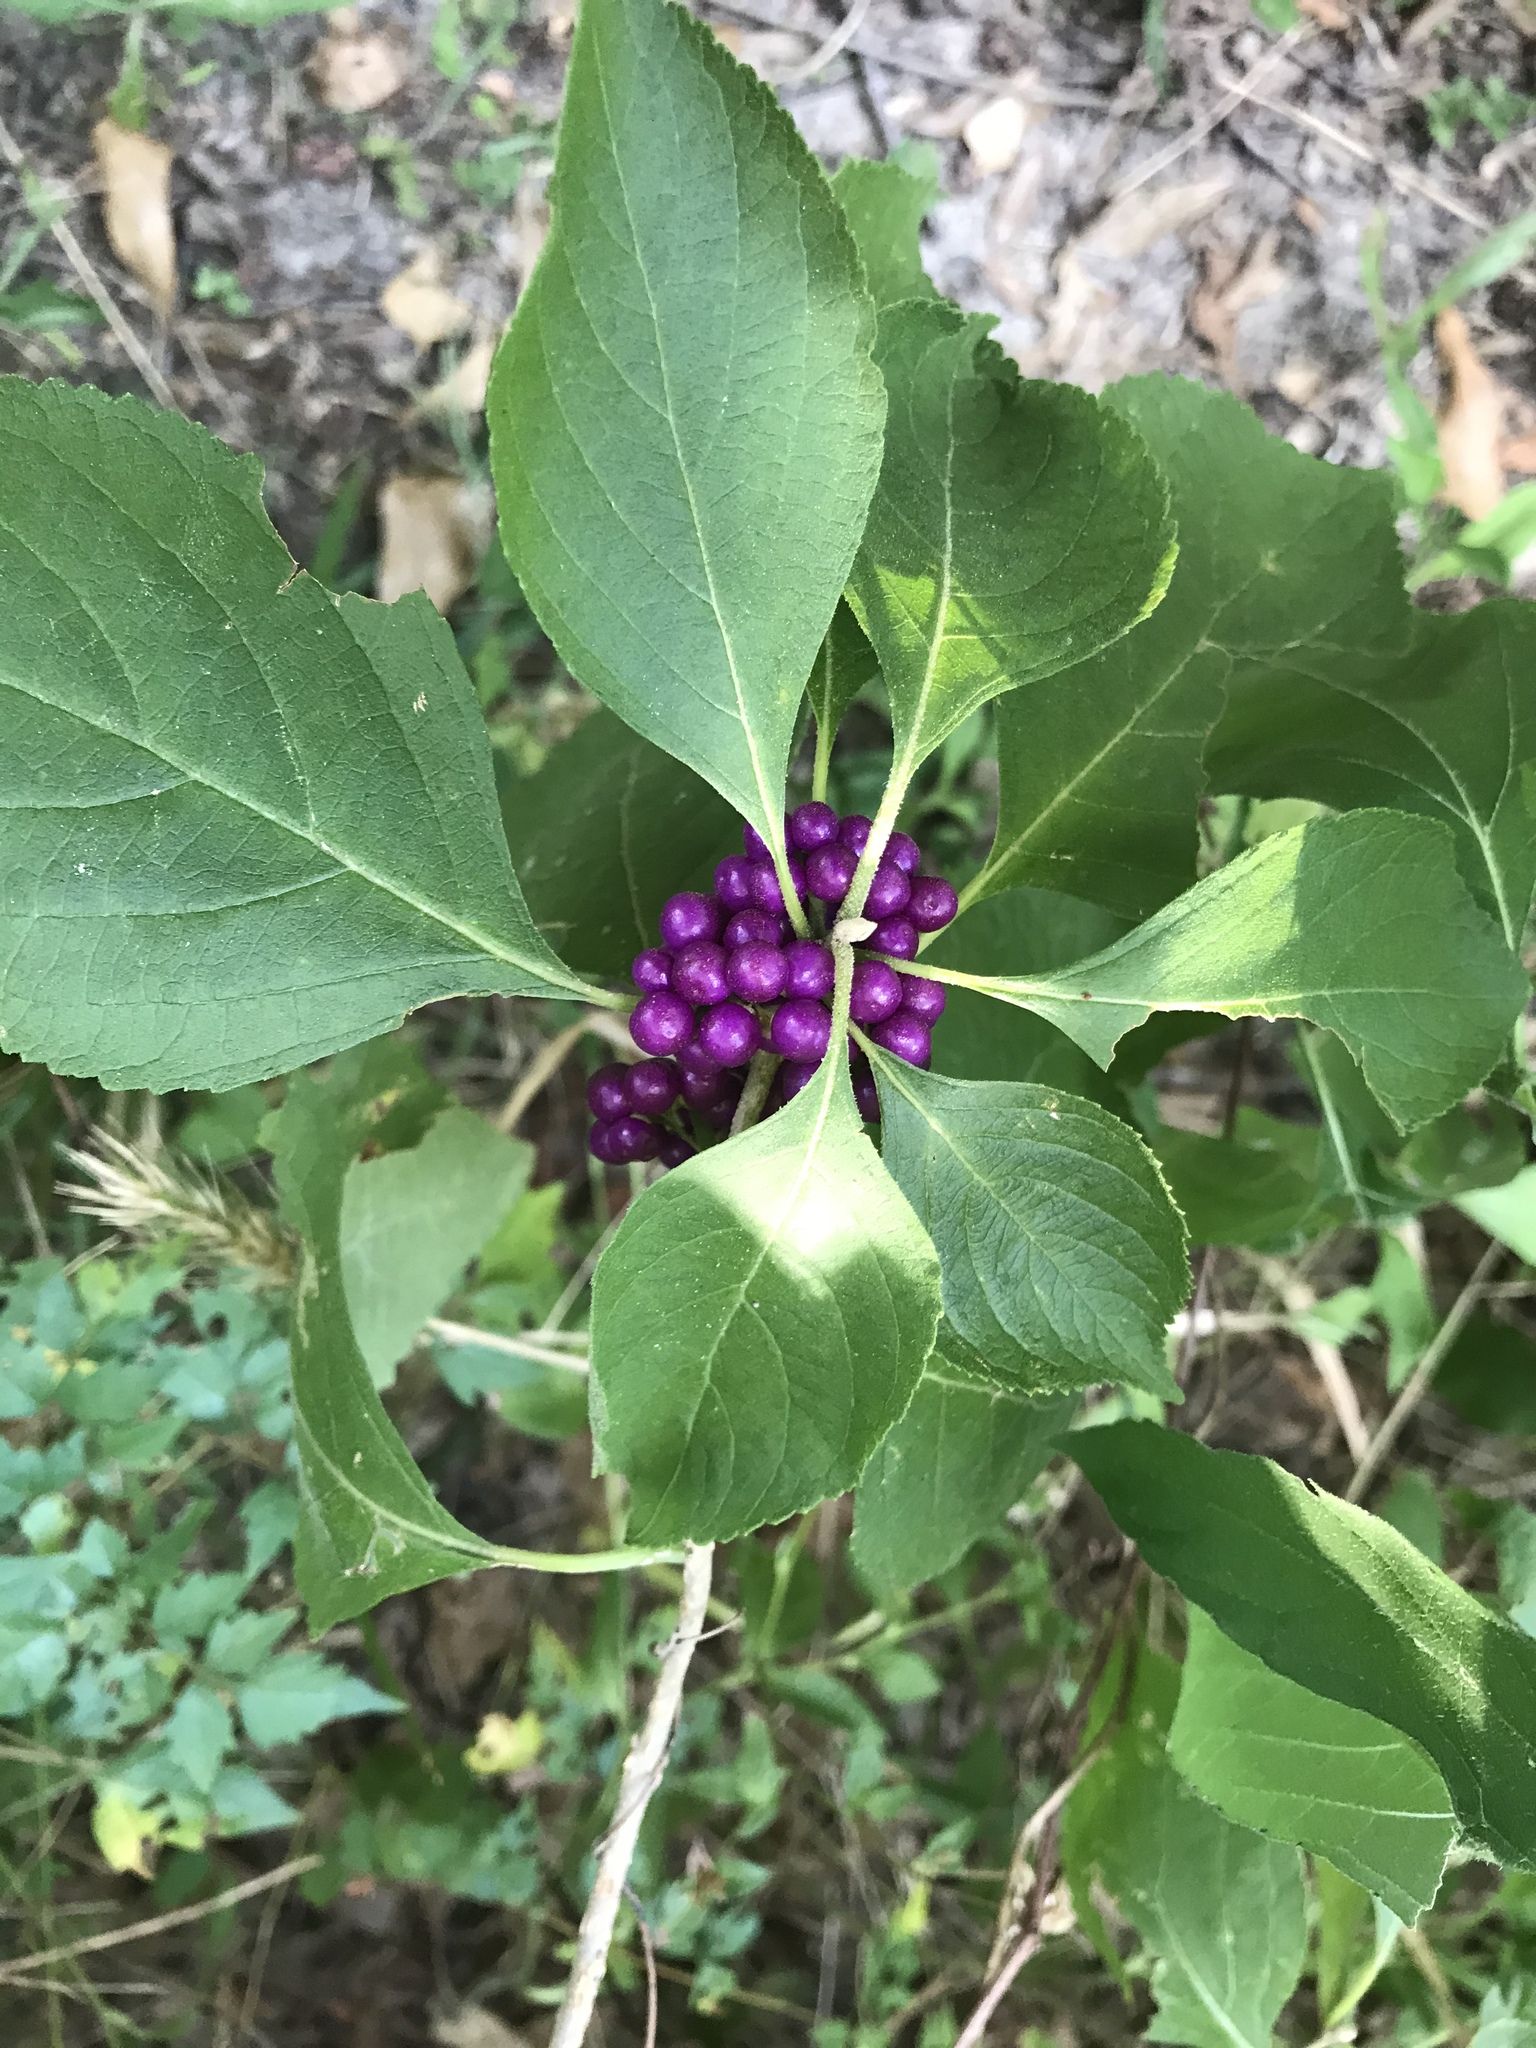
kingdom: Plantae
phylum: Tracheophyta
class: Magnoliopsida
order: Lamiales
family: Lamiaceae
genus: Callicarpa
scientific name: Callicarpa americana
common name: American beautyberry
